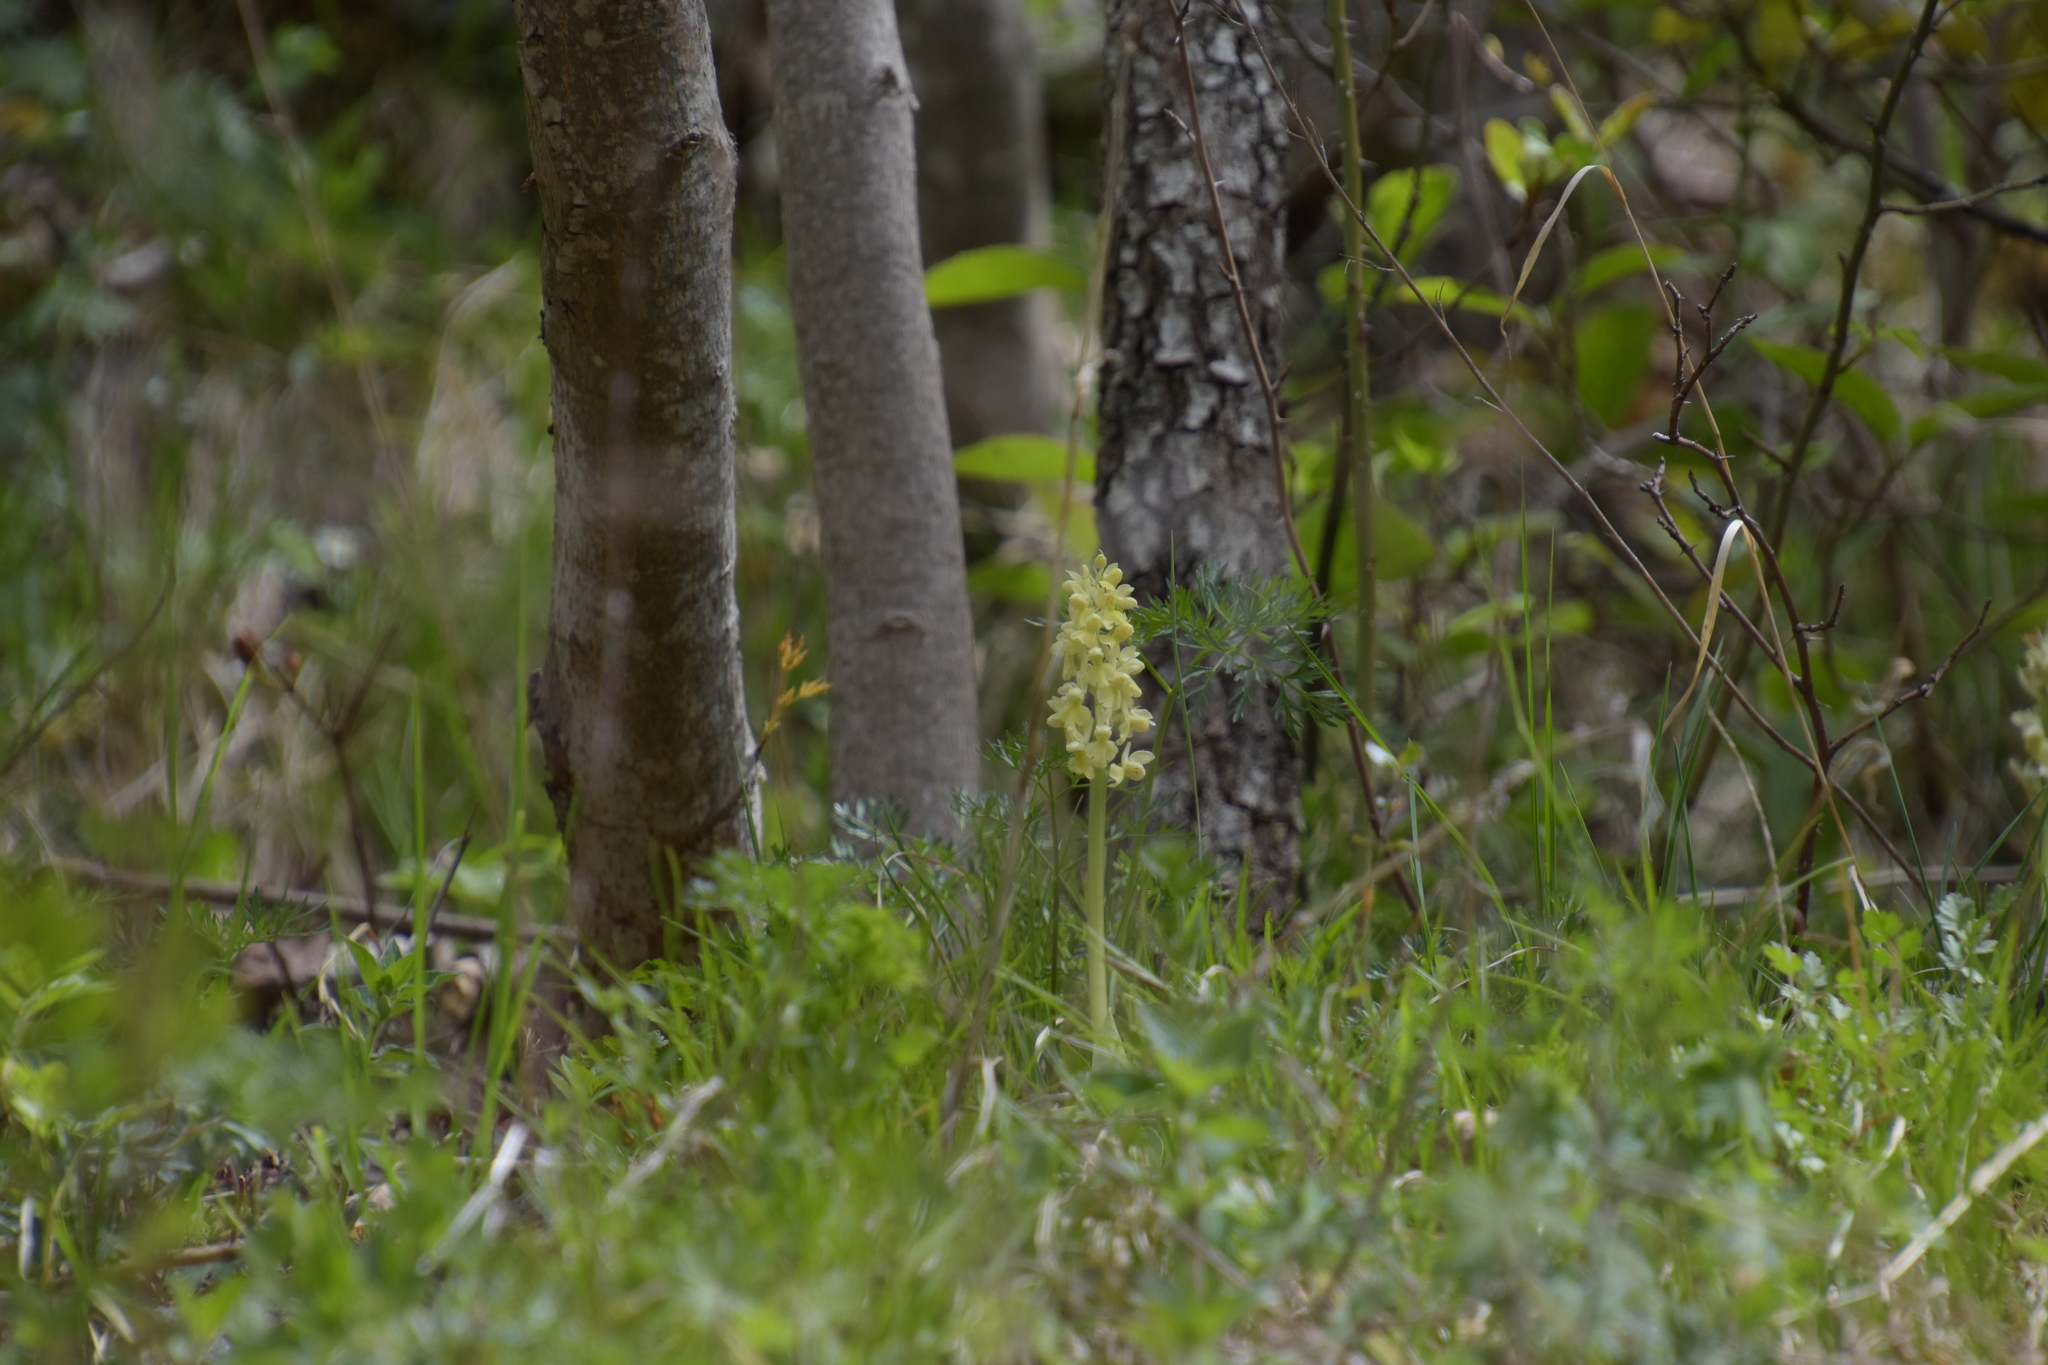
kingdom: Plantae
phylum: Tracheophyta
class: Liliopsida
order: Asparagales
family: Orchidaceae
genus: Orchis
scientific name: Orchis pallens
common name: Pale-flowered orchid
